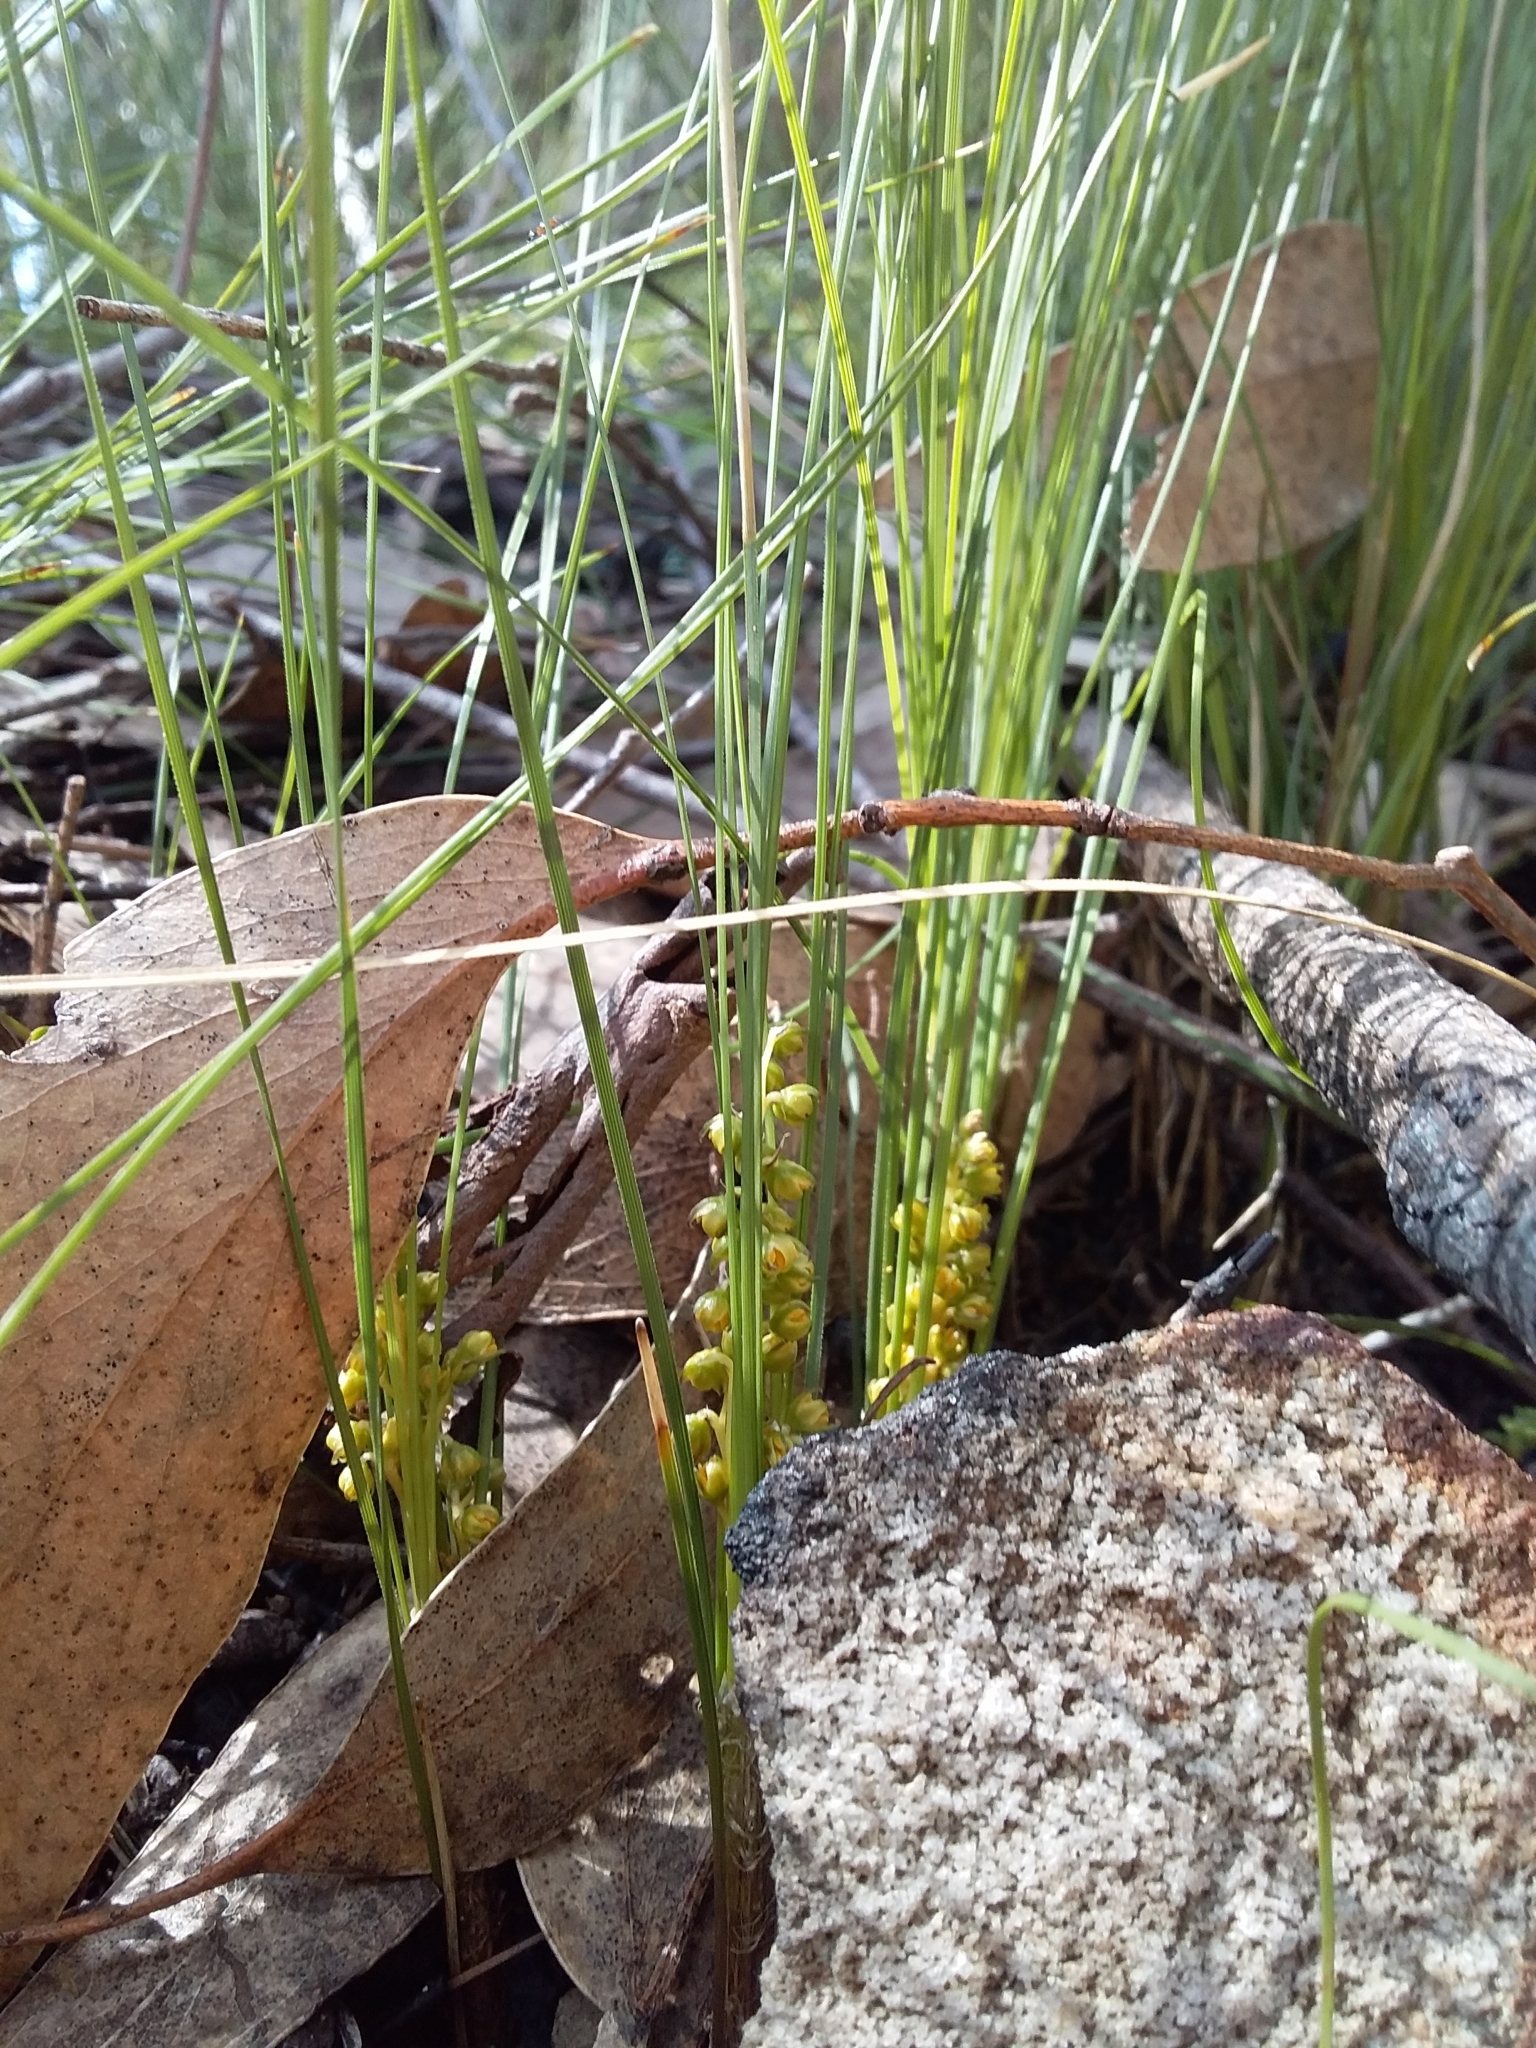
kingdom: Plantae
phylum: Tracheophyta
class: Liliopsida
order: Asparagales
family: Asparagaceae
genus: Lomandra
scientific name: Lomandra fibrata
